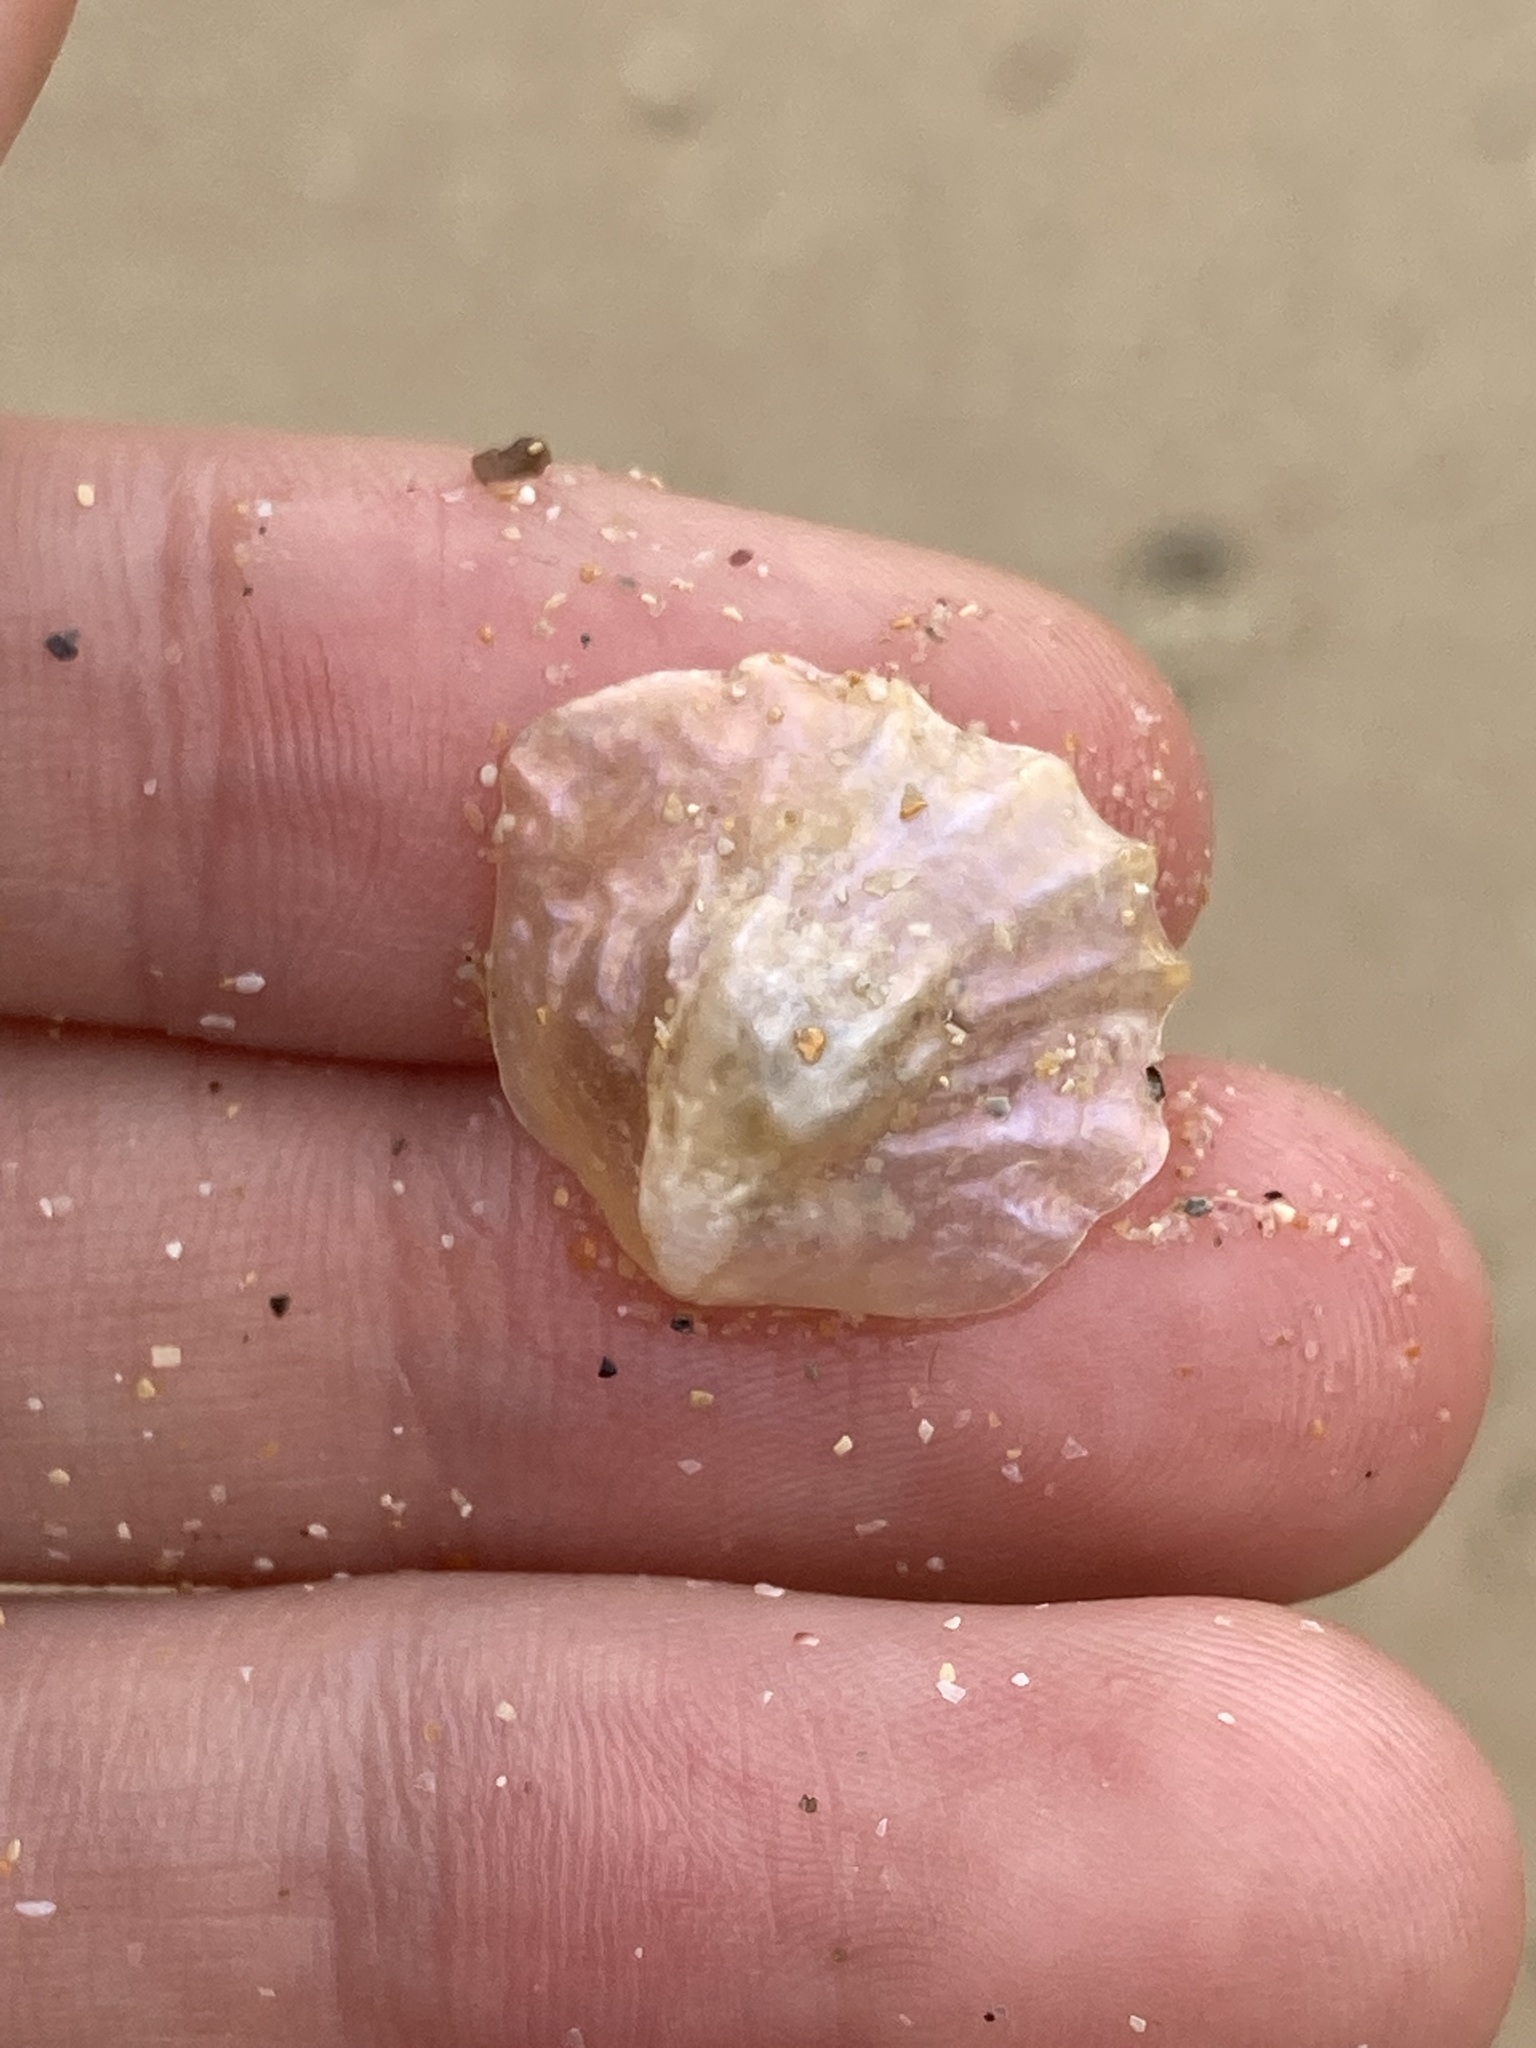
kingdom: Animalia
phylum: Mollusca
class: Bivalvia
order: Pectinida
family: Anomiidae
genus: Anomia
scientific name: Anomia trigonopsis
